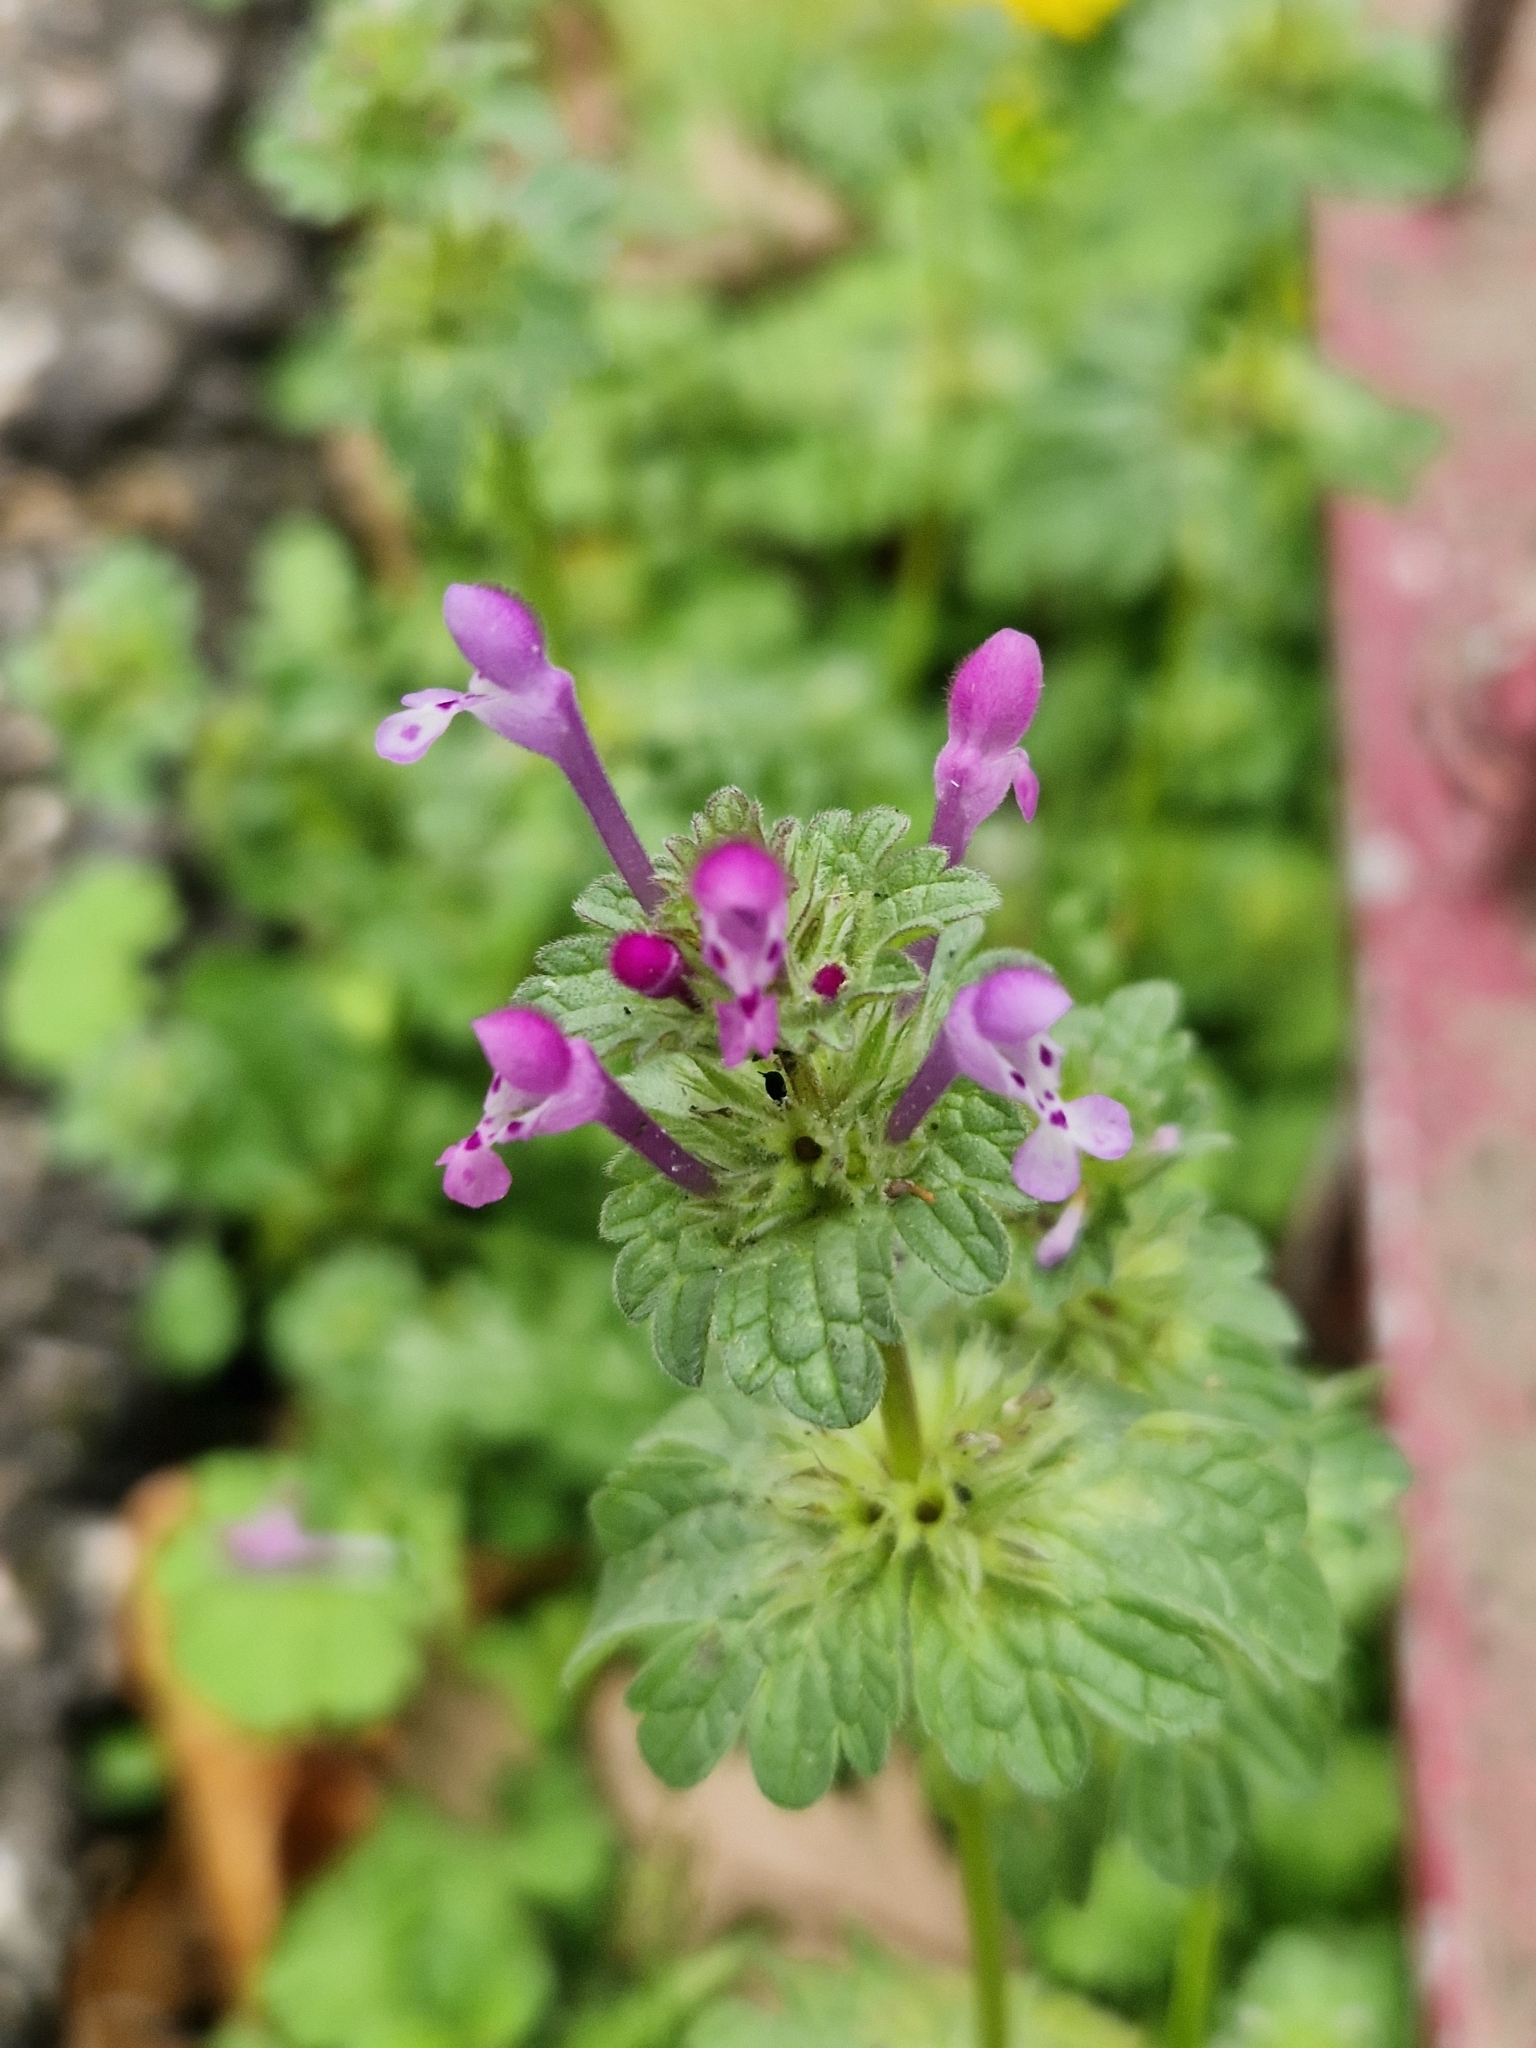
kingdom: Plantae
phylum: Tracheophyta
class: Magnoliopsida
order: Lamiales
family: Lamiaceae
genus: Lamium
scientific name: Lamium amplexicaule
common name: Henbit dead-nettle
